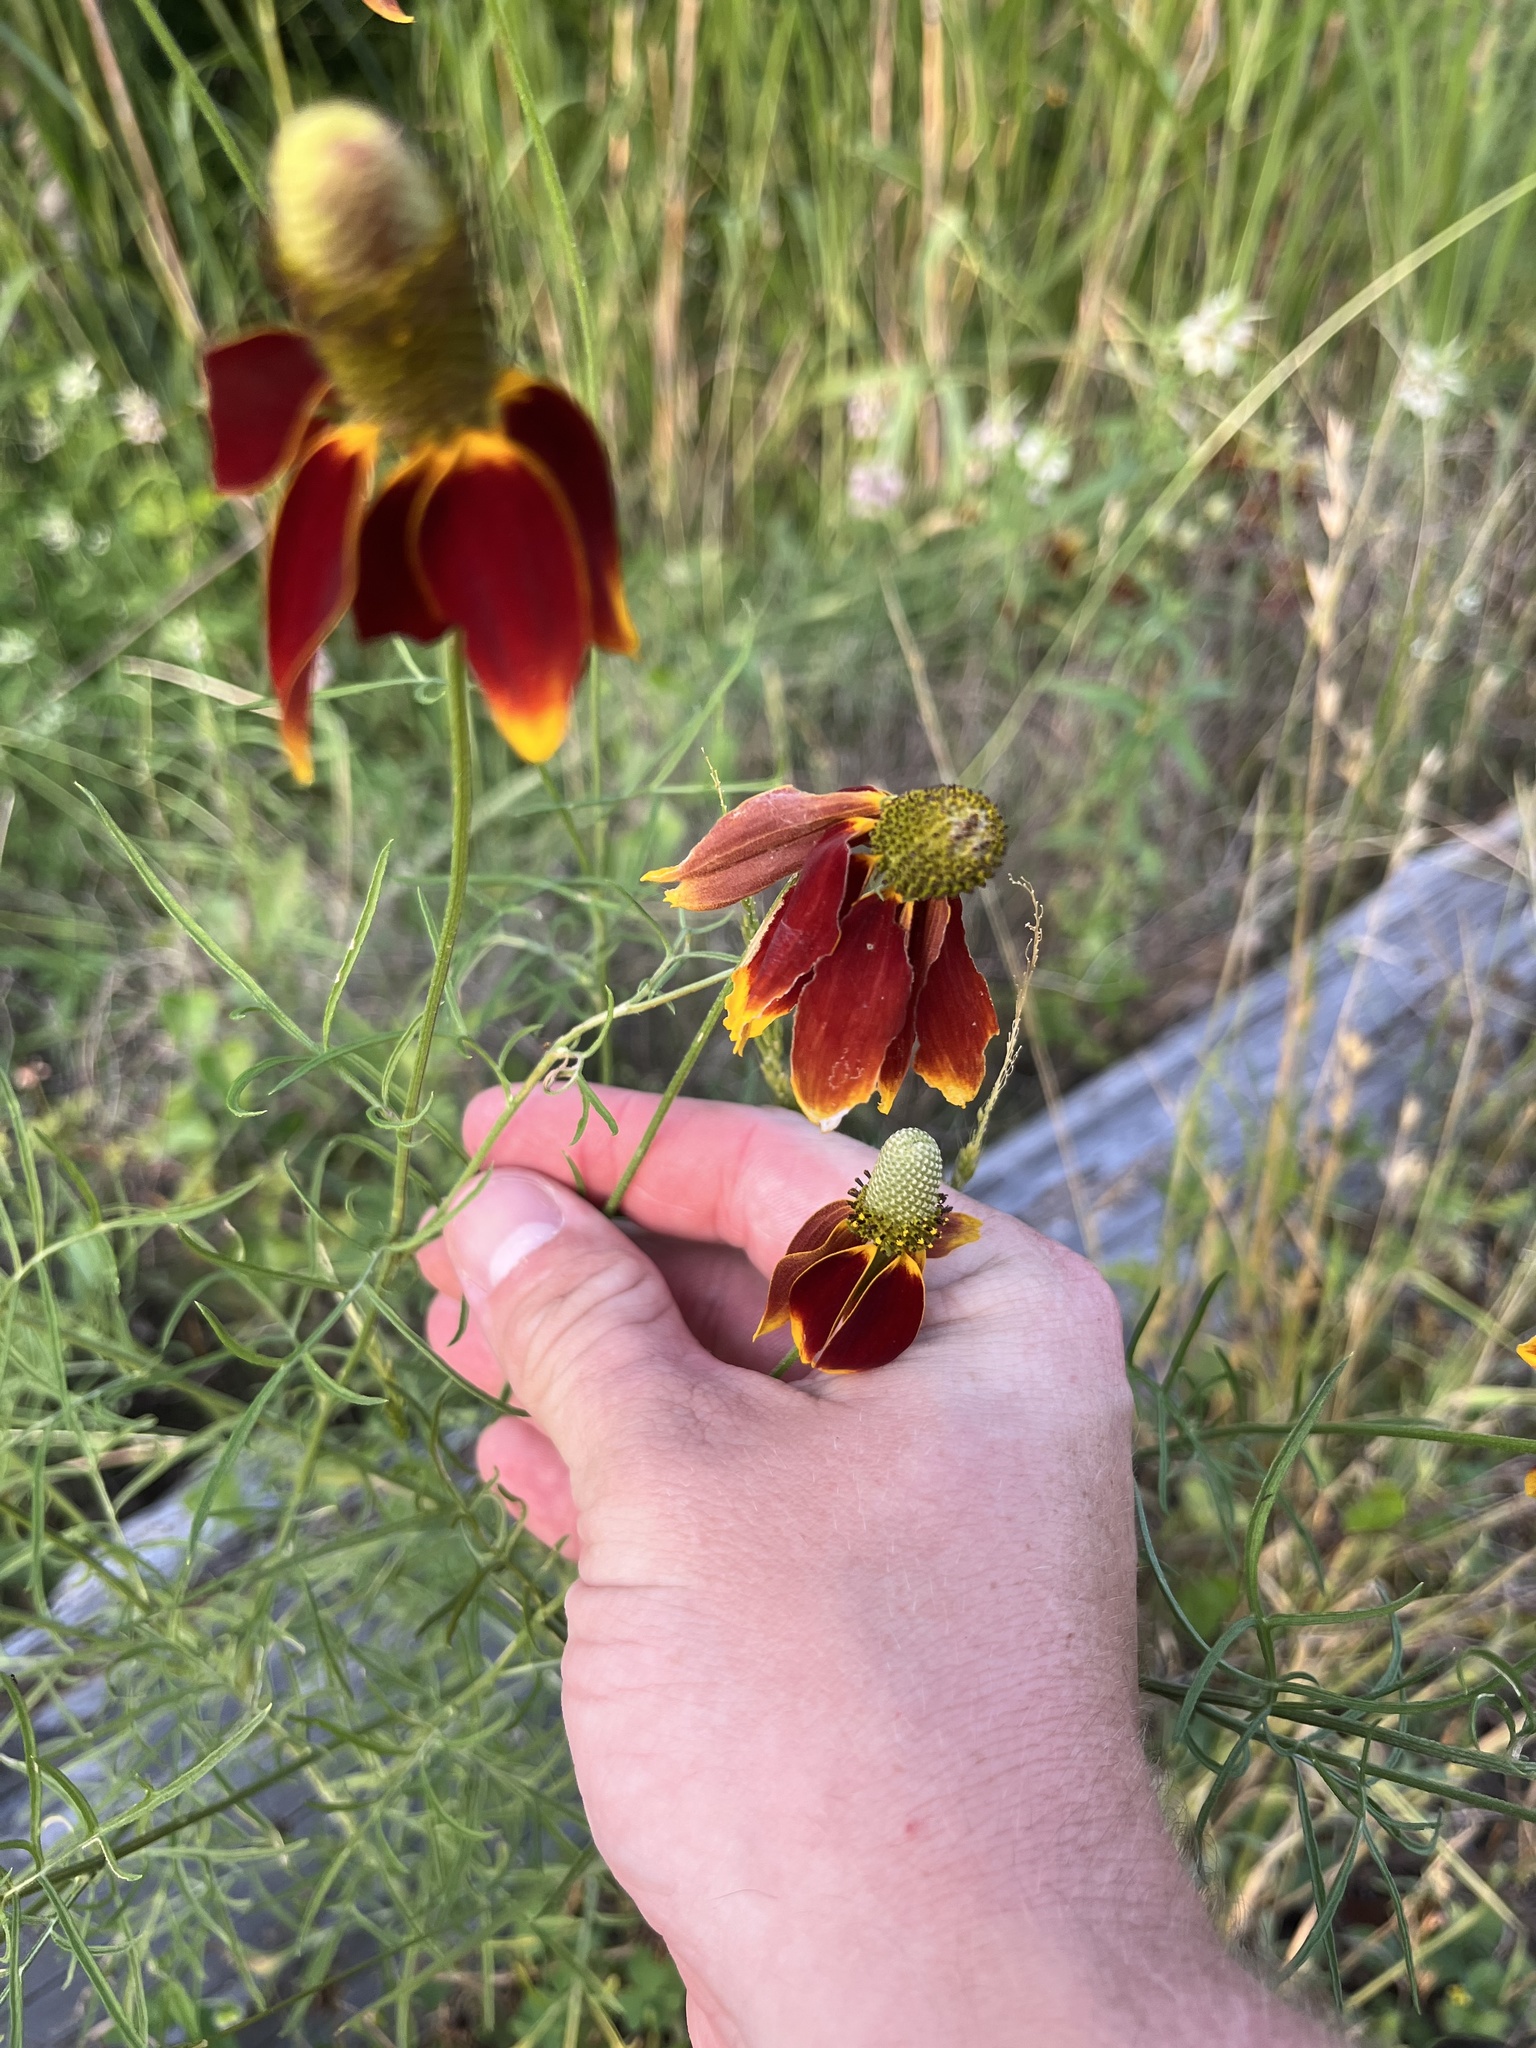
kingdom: Plantae
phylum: Tracheophyta
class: Magnoliopsida
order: Asterales
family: Asteraceae
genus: Ratibida
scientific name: Ratibida columnifera
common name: Prairie coneflower
